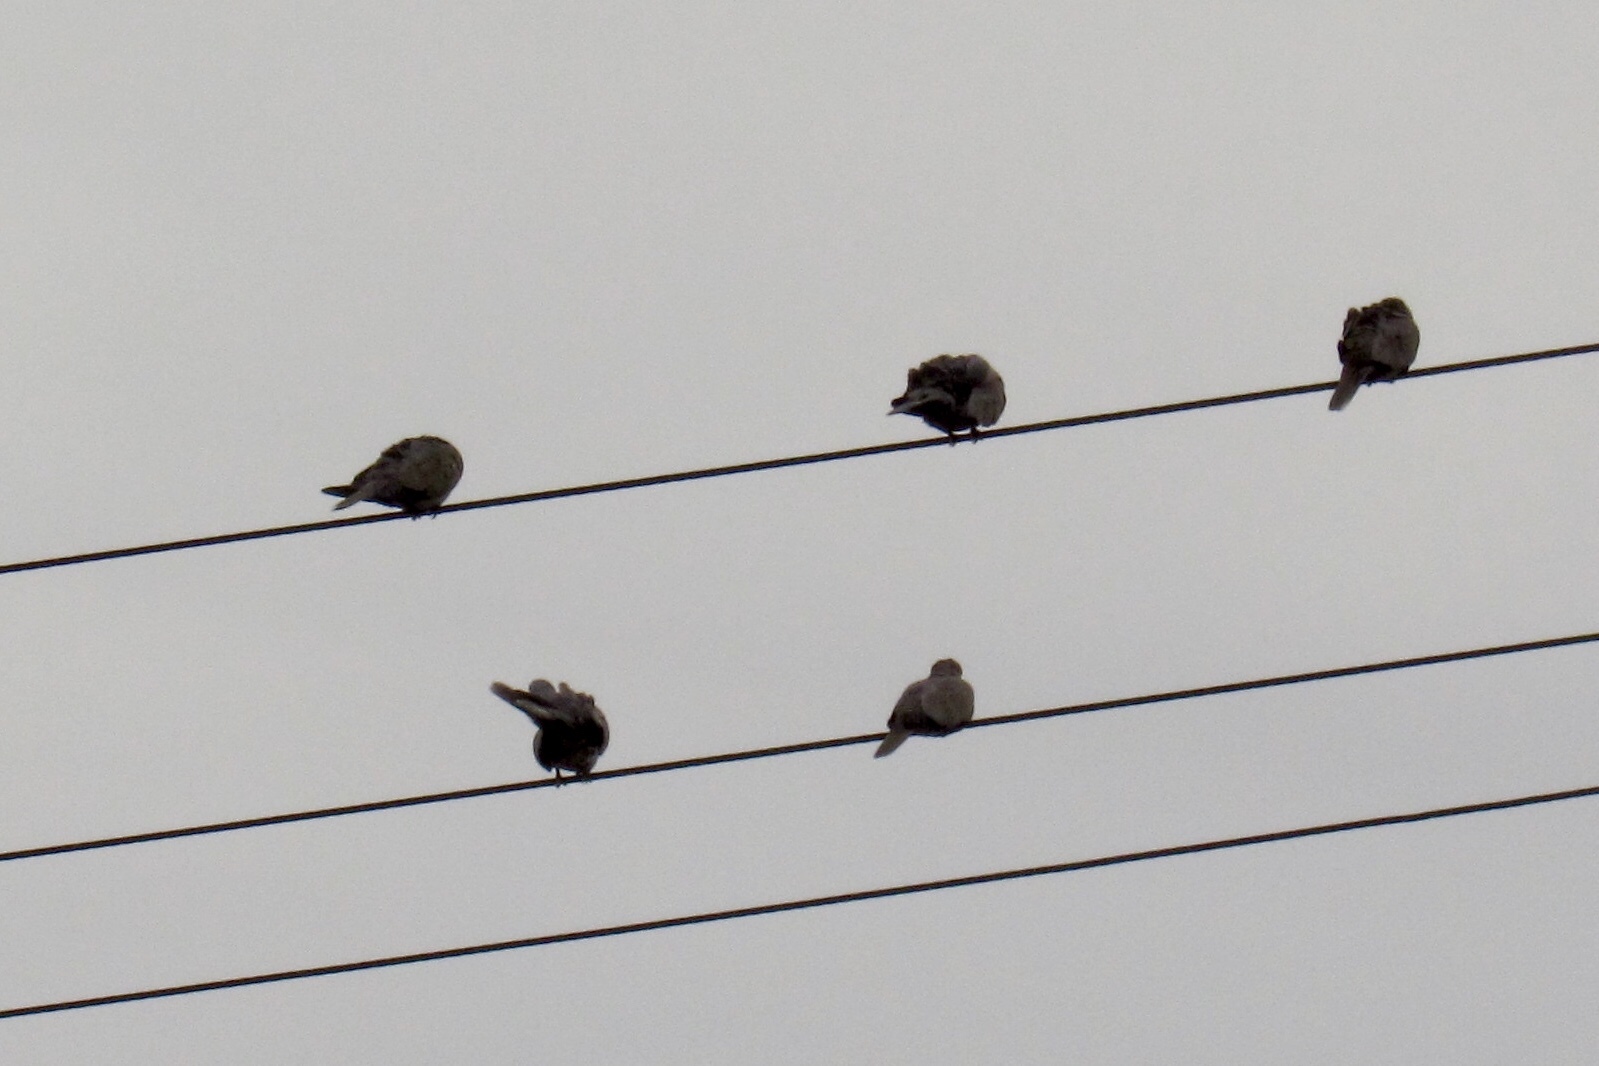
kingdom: Animalia
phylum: Chordata
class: Aves
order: Columbiformes
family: Columbidae
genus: Streptopelia
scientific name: Streptopelia decaocto
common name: Eurasian collared dove
